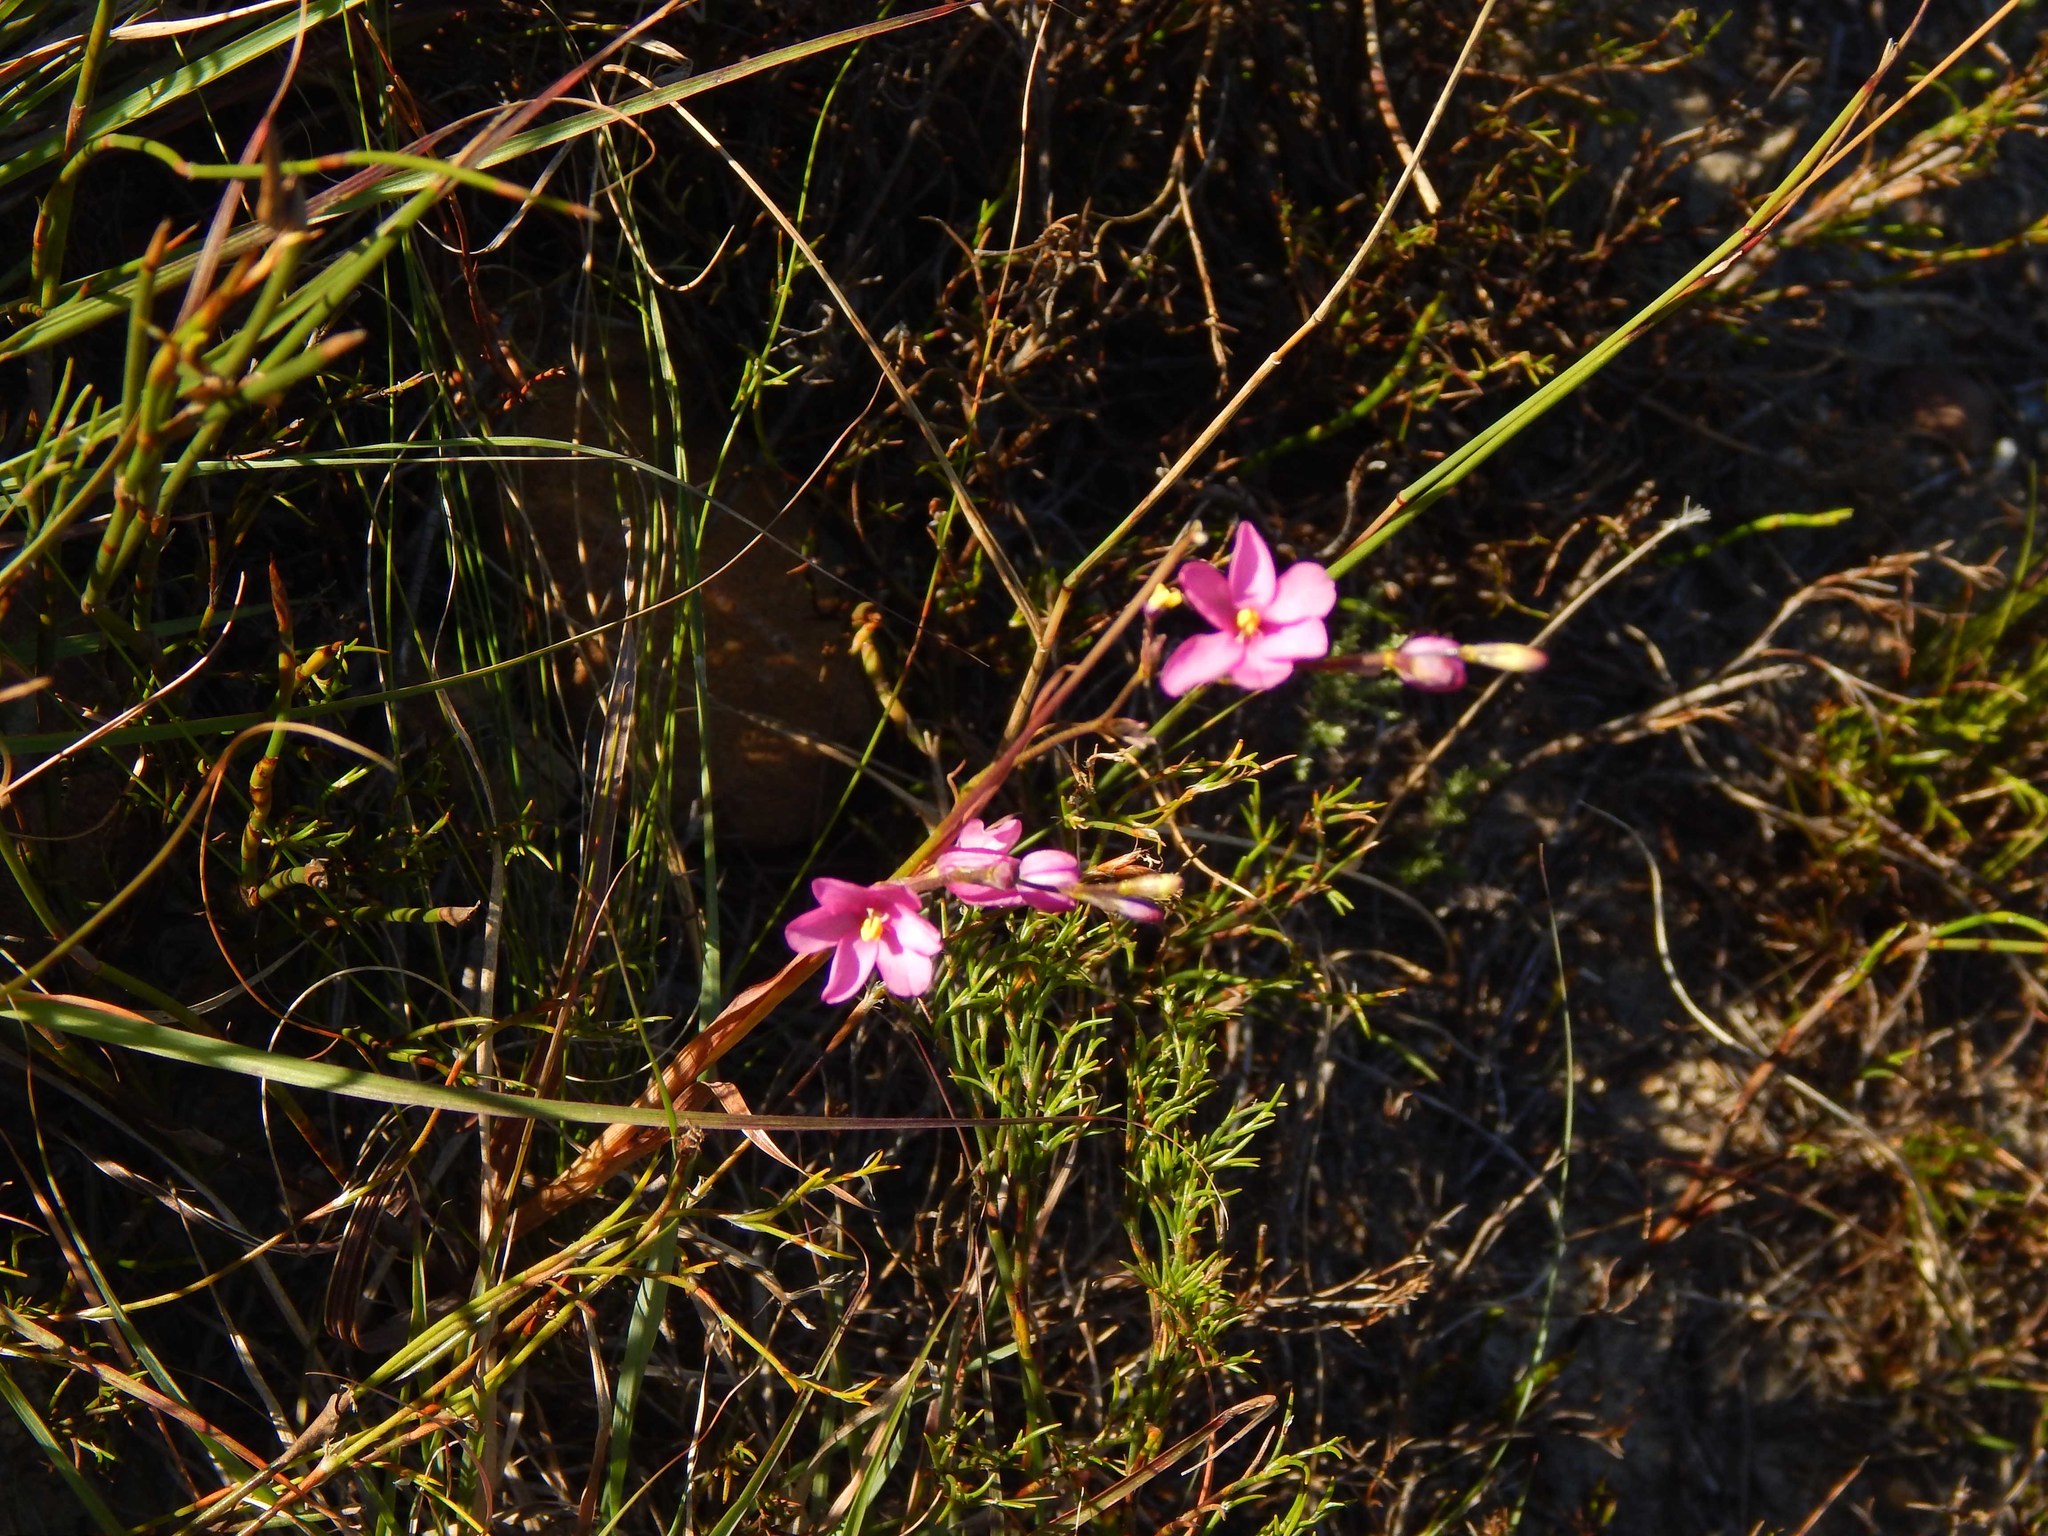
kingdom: Plantae
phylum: Tracheophyta
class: Liliopsida
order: Asparagales
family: Iridaceae
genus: Ixia
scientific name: Ixia stricta
